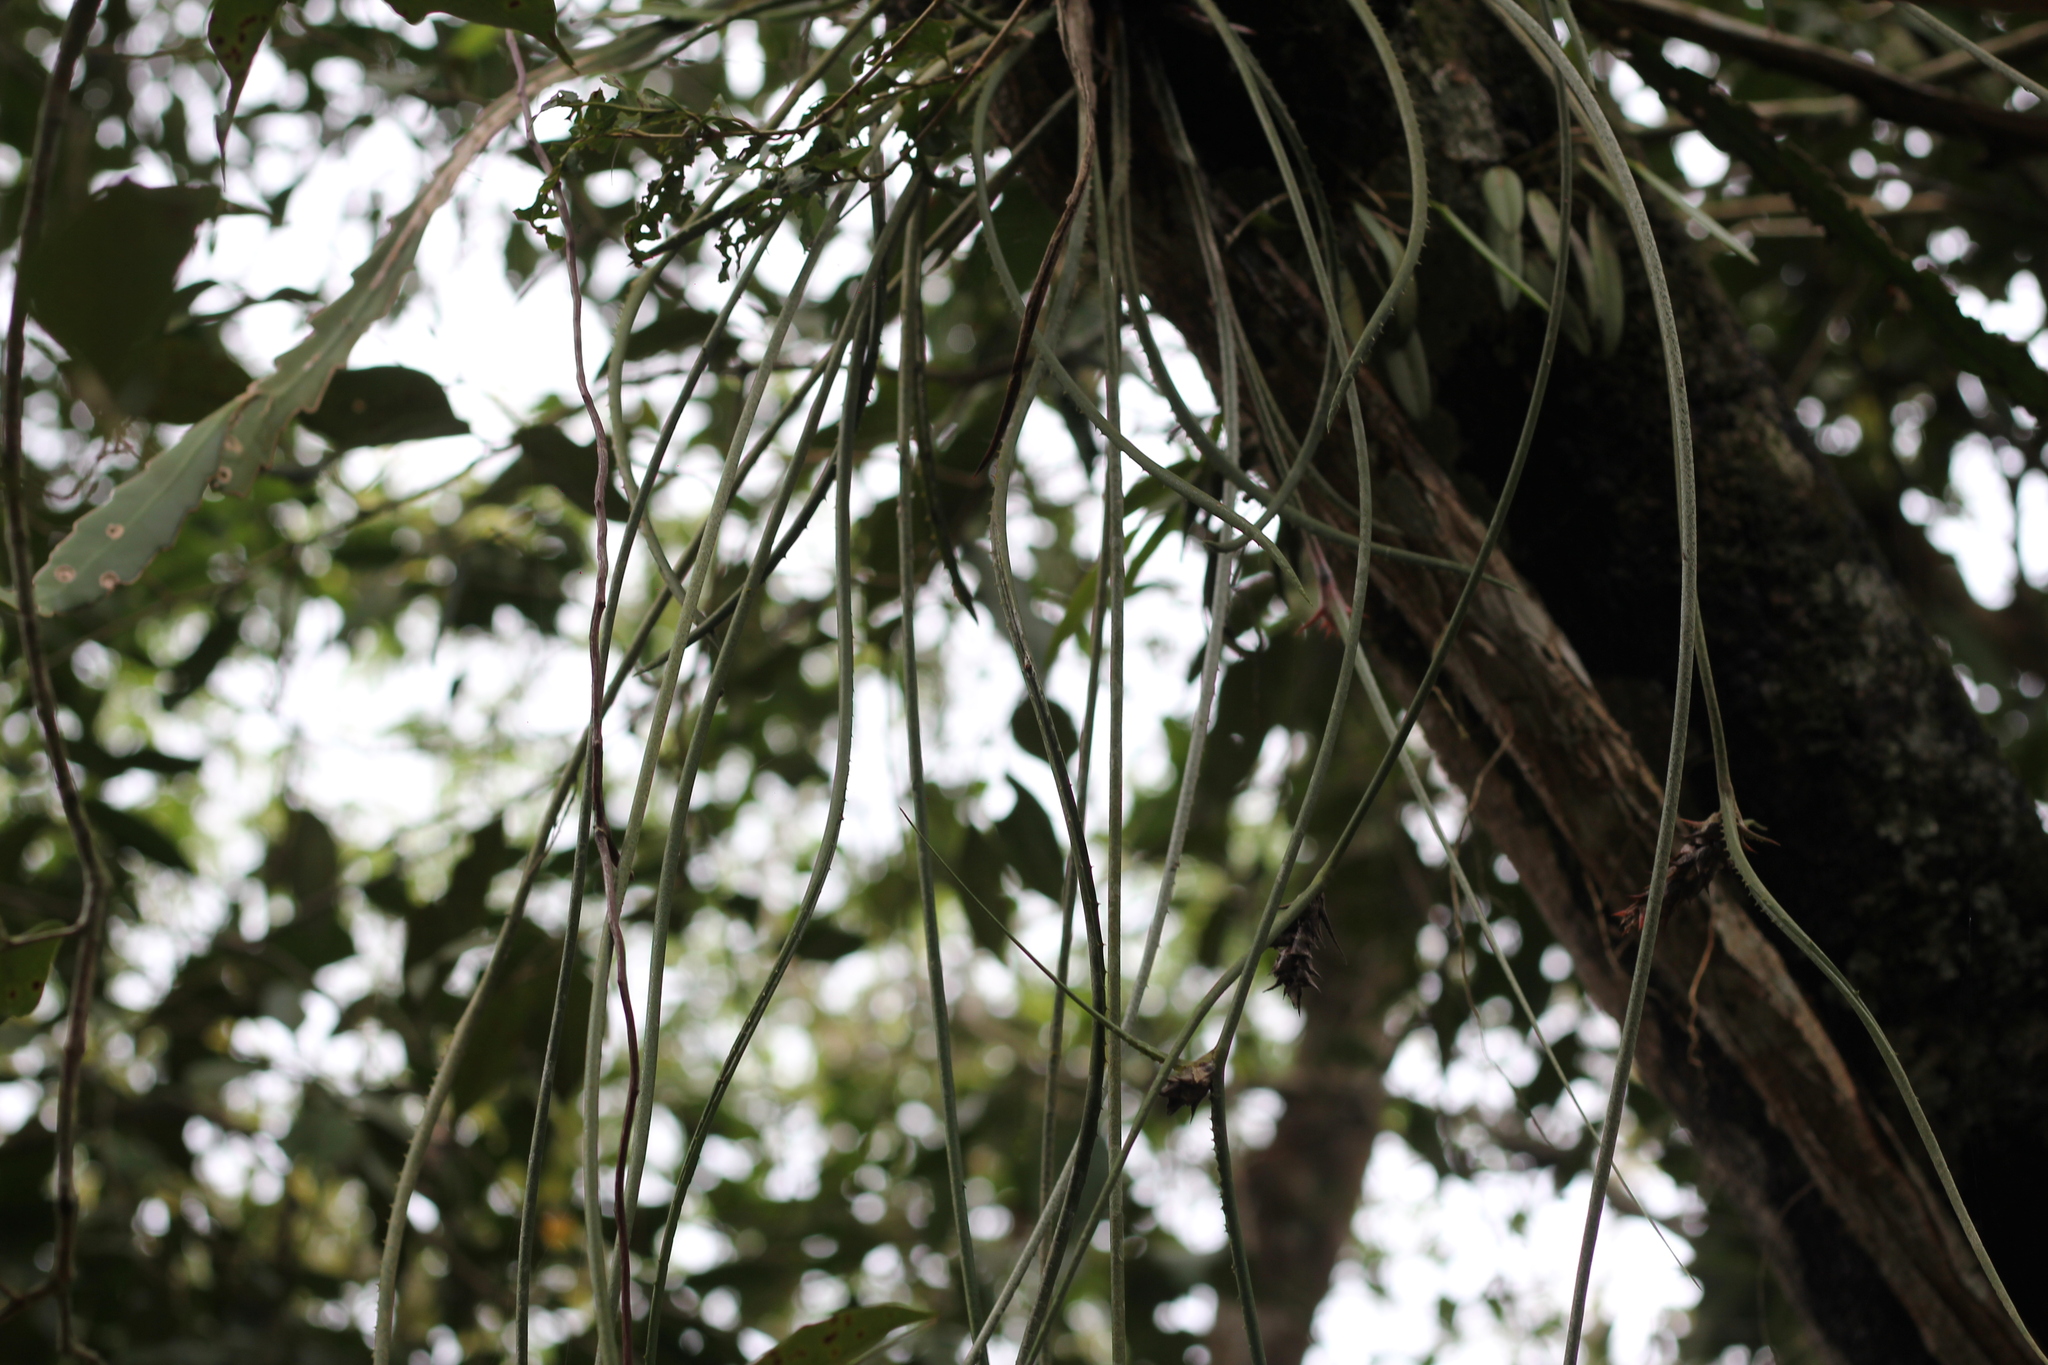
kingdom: Plantae
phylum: Tracheophyta
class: Liliopsida
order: Poales
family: Bromeliaceae
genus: Acanthostachys
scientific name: Acanthostachys strobilacea
